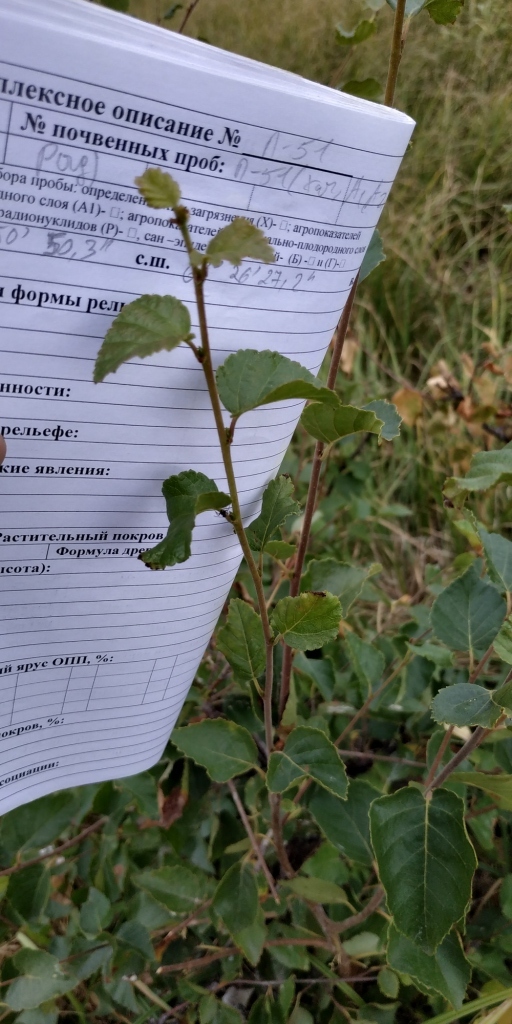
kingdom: Plantae
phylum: Tracheophyta
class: Magnoliopsida
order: Fagales
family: Betulaceae
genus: Betula
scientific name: Betula pubescens
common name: Downy birch
